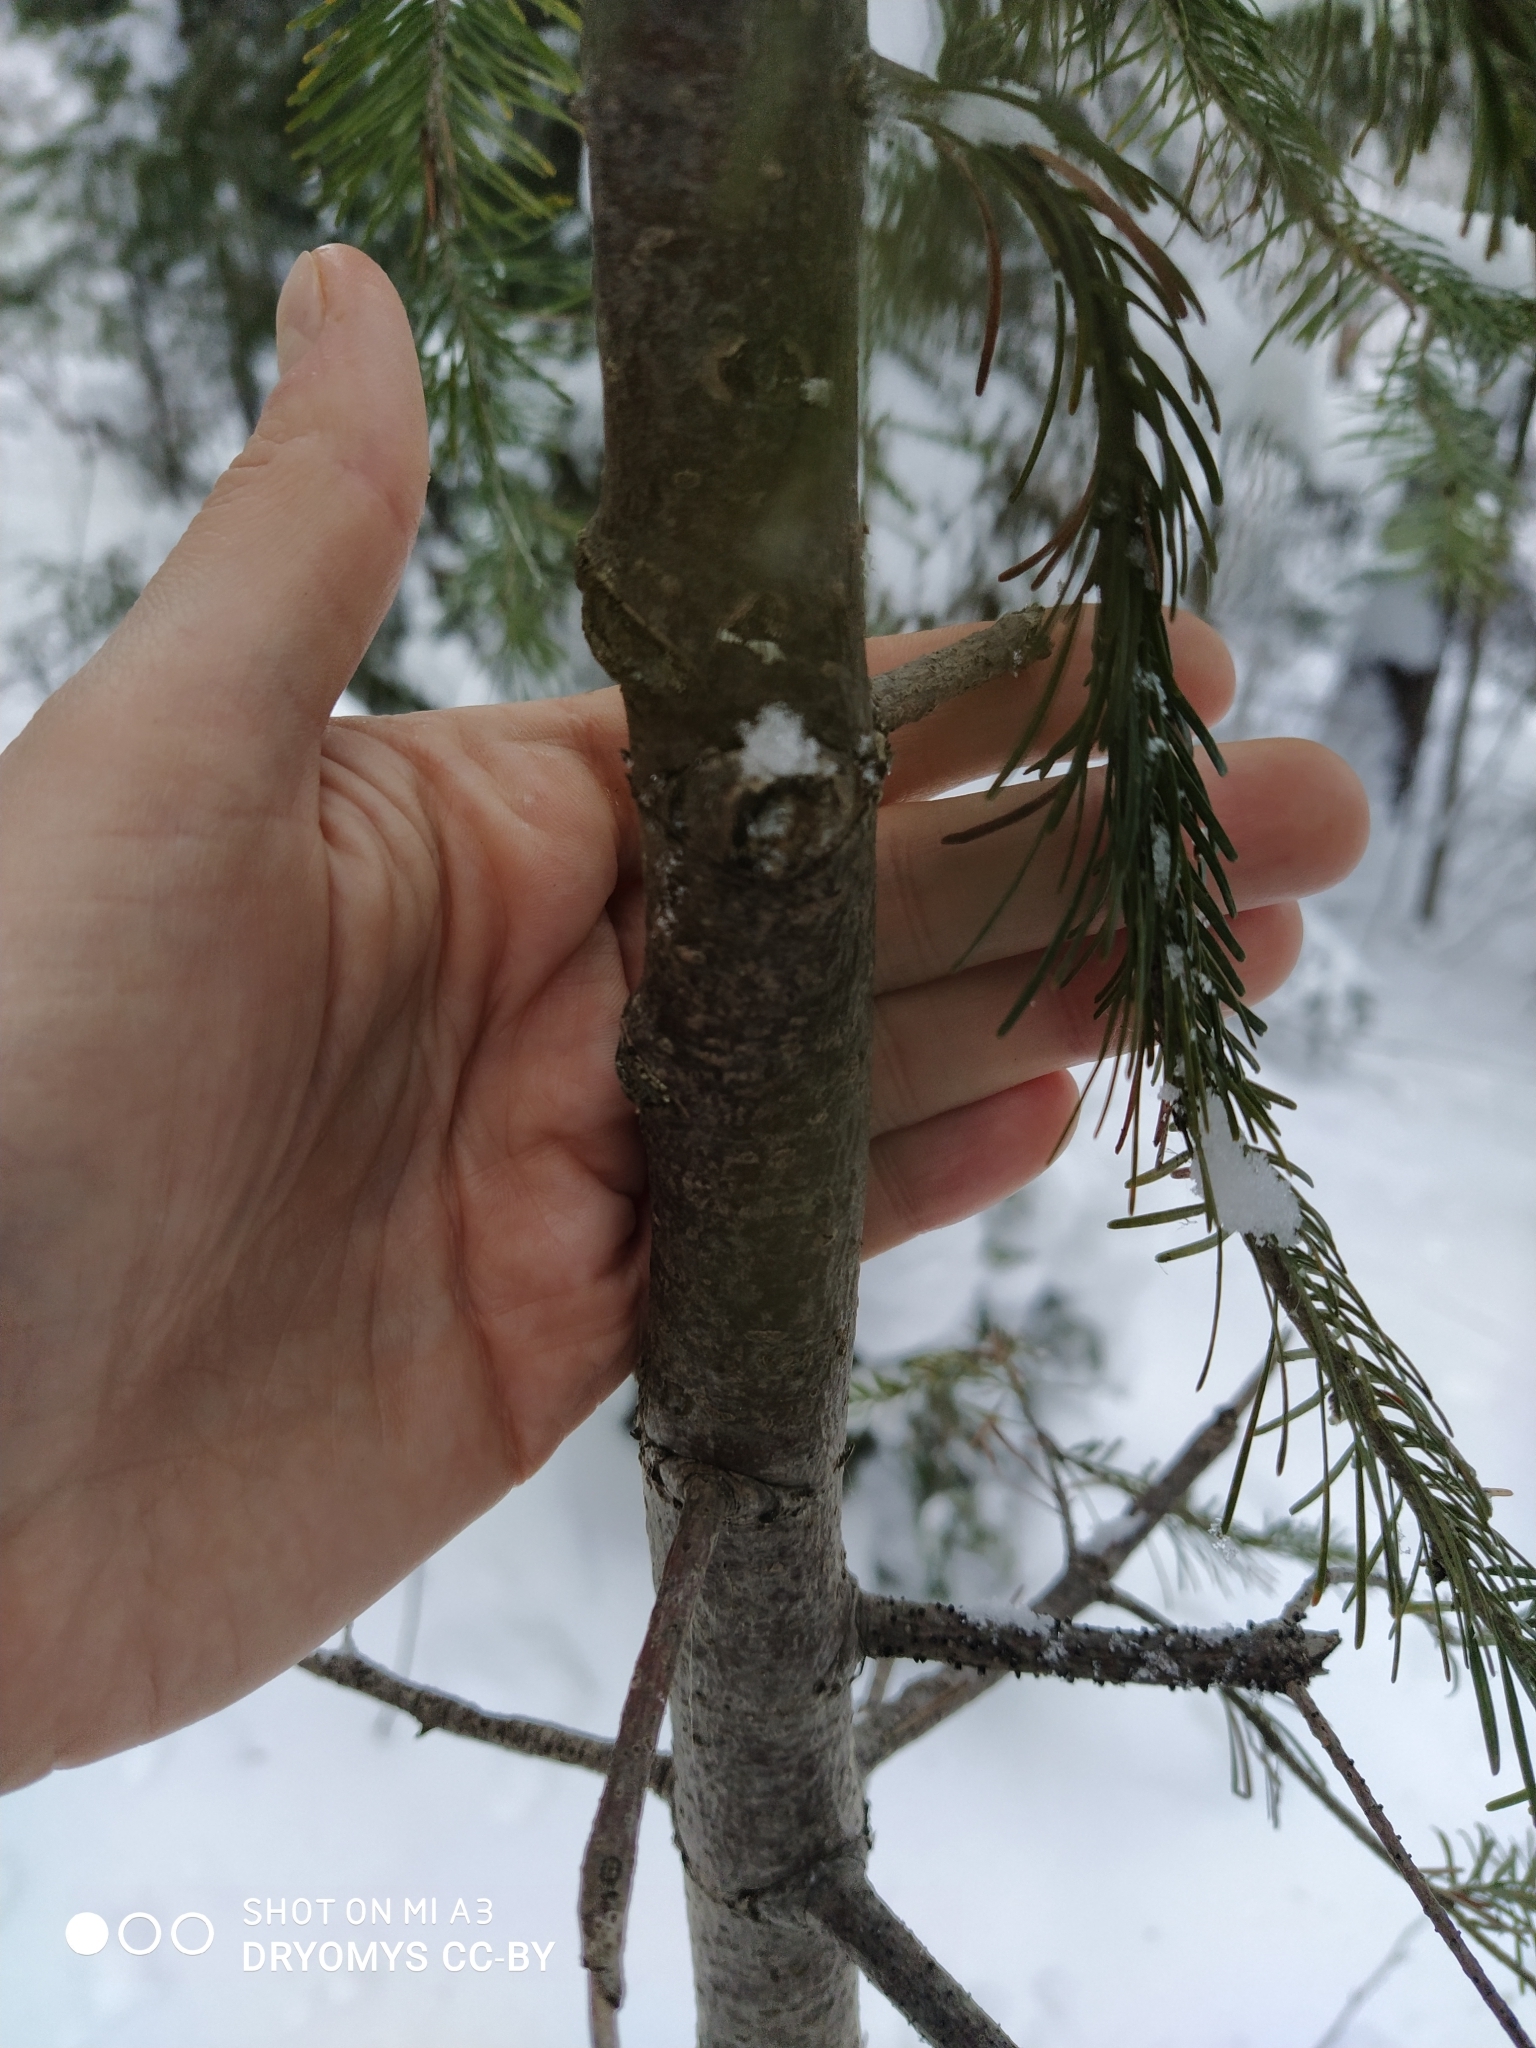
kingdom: Plantae
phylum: Tracheophyta
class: Pinopsida
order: Pinales
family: Pinaceae
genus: Abies
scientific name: Abies sibirica
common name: Siberian fir
